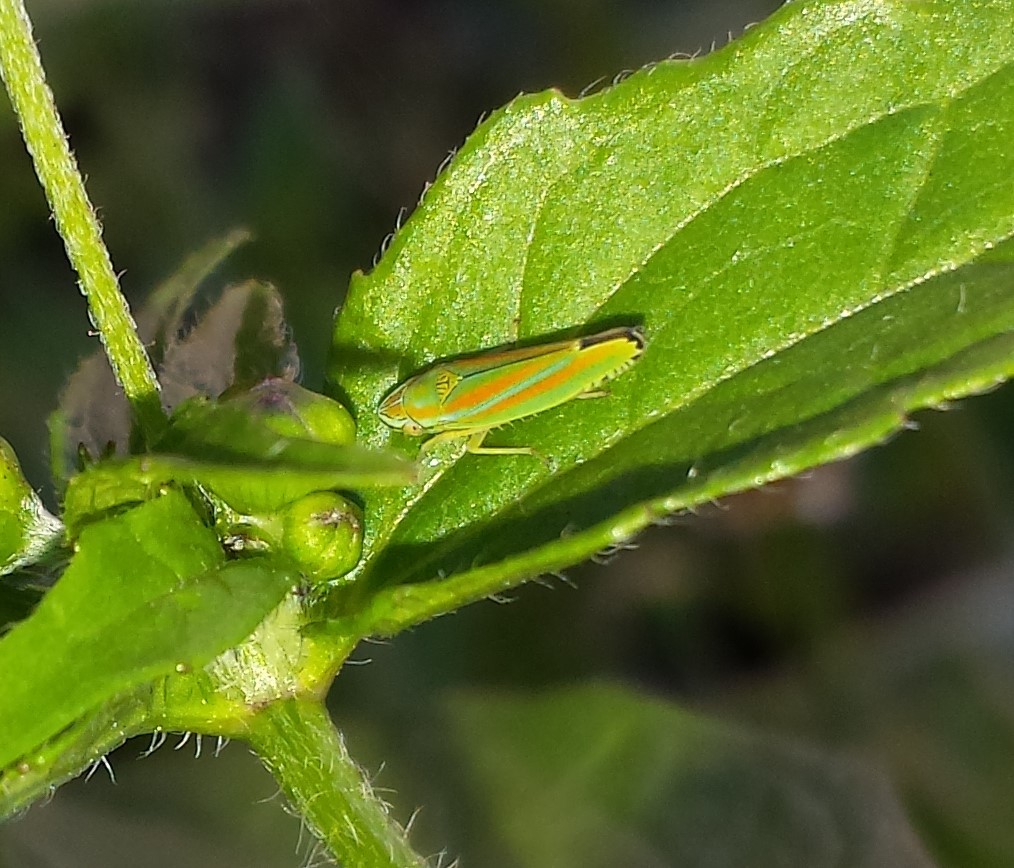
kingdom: Animalia
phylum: Arthropoda
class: Insecta
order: Hemiptera
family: Cicadellidae
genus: Graphocephala
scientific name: Graphocephala versuta
